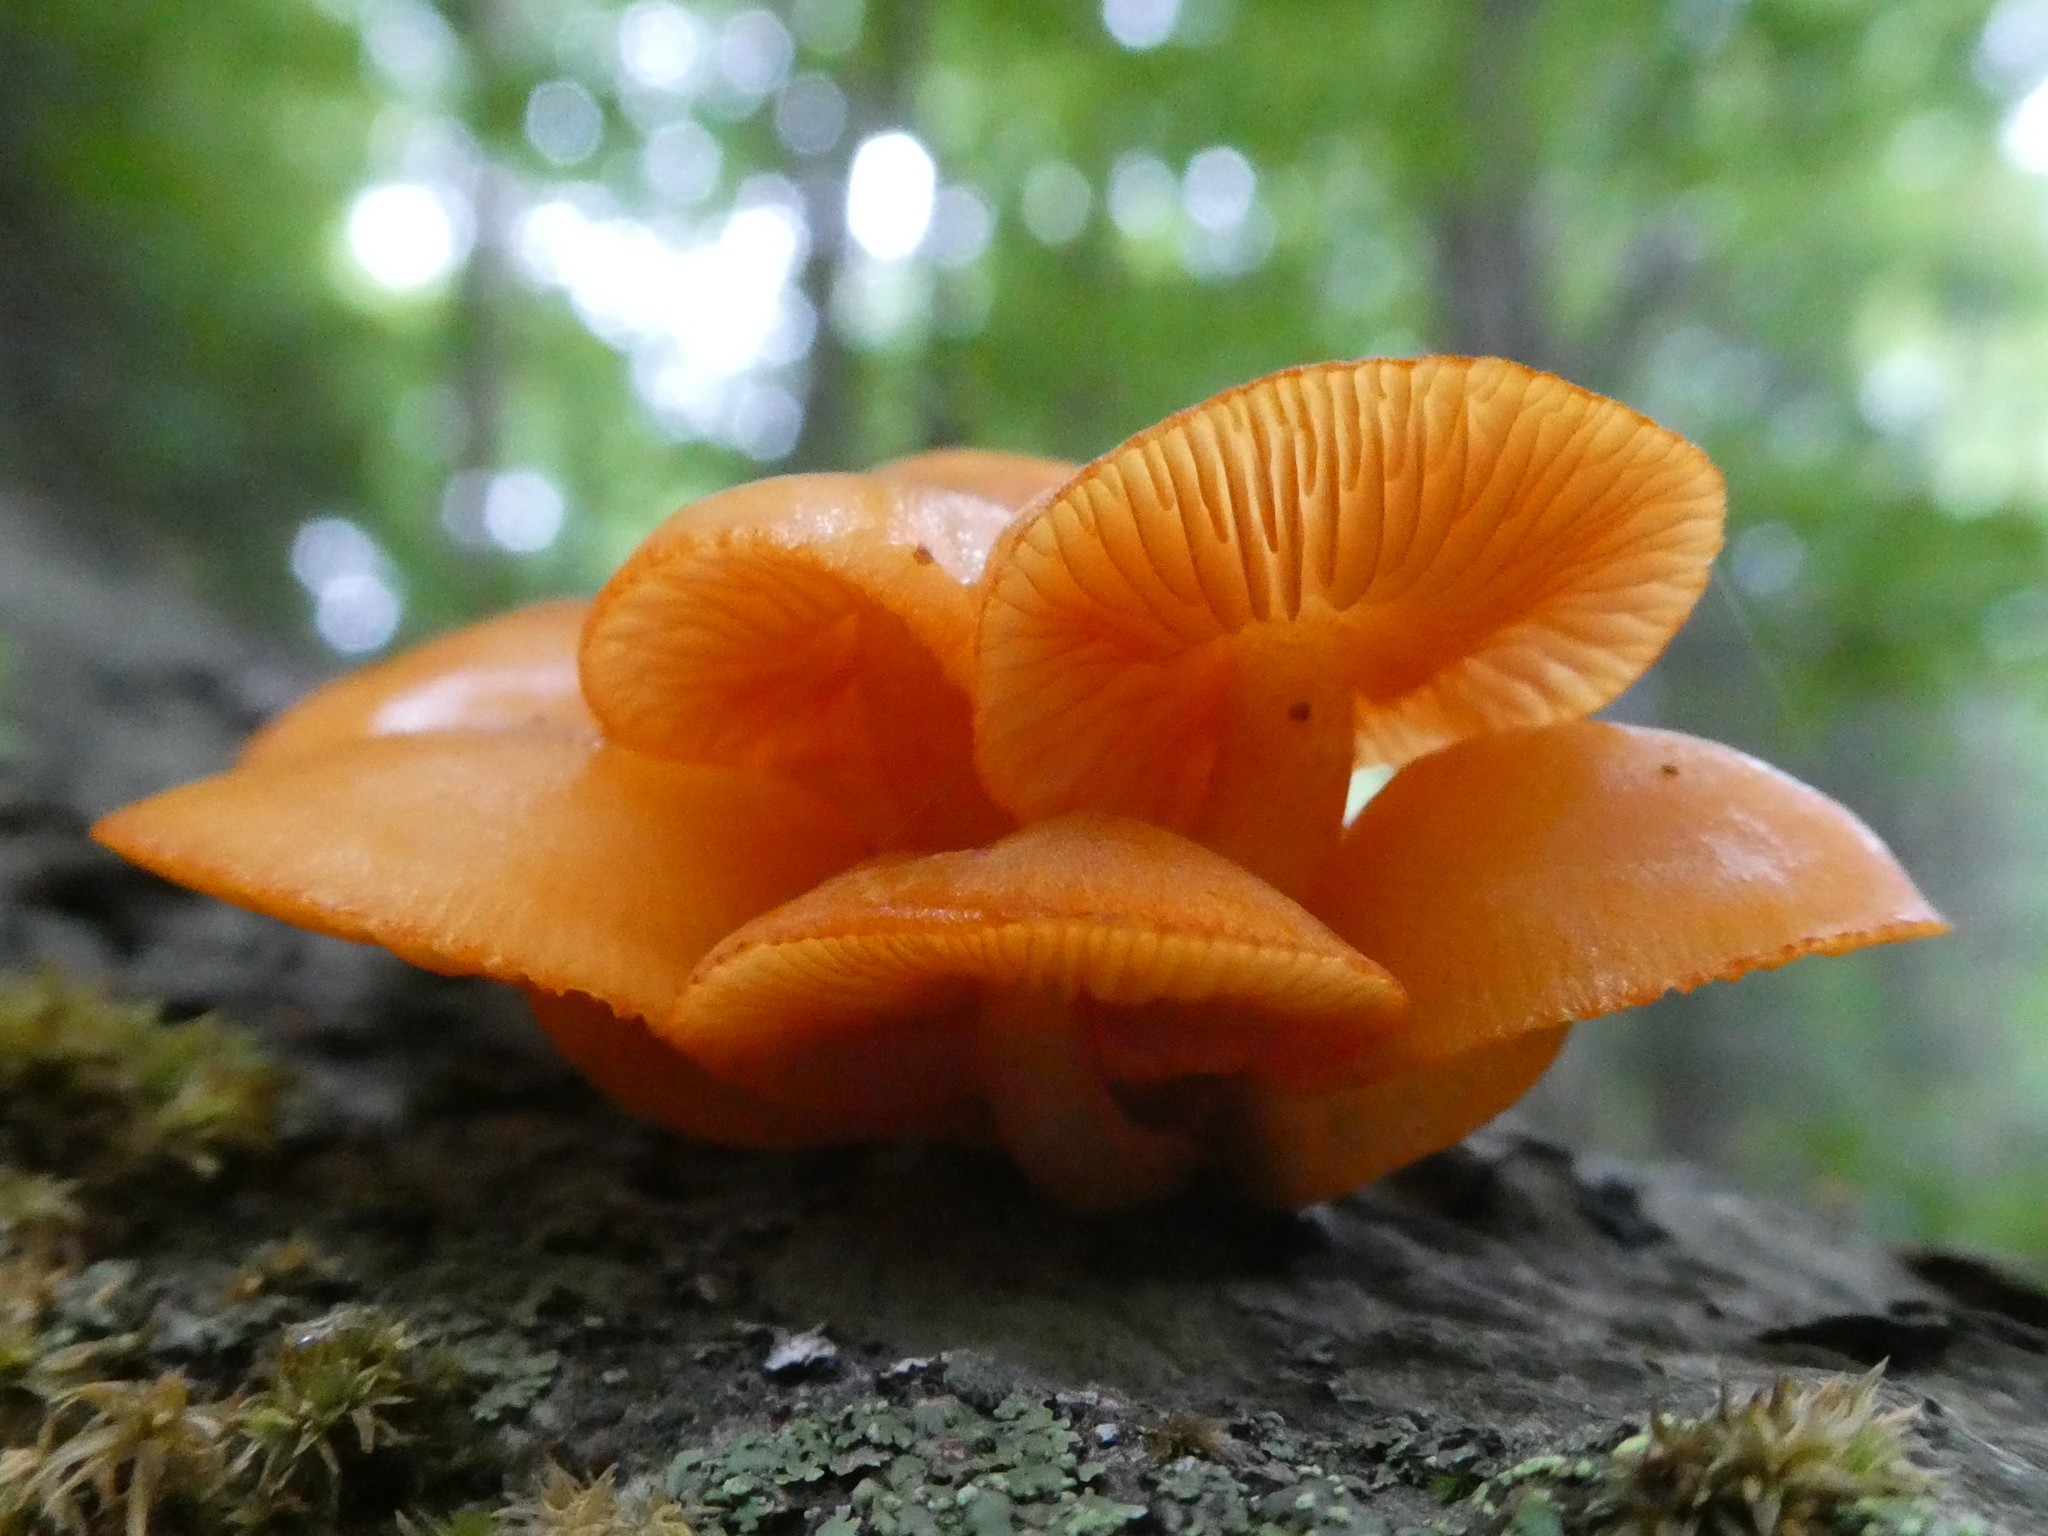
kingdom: Fungi
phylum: Basidiomycota
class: Agaricomycetes
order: Agaricales
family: Mycenaceae
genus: Mycena
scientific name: Mycena leaiana
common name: Orange mycena
